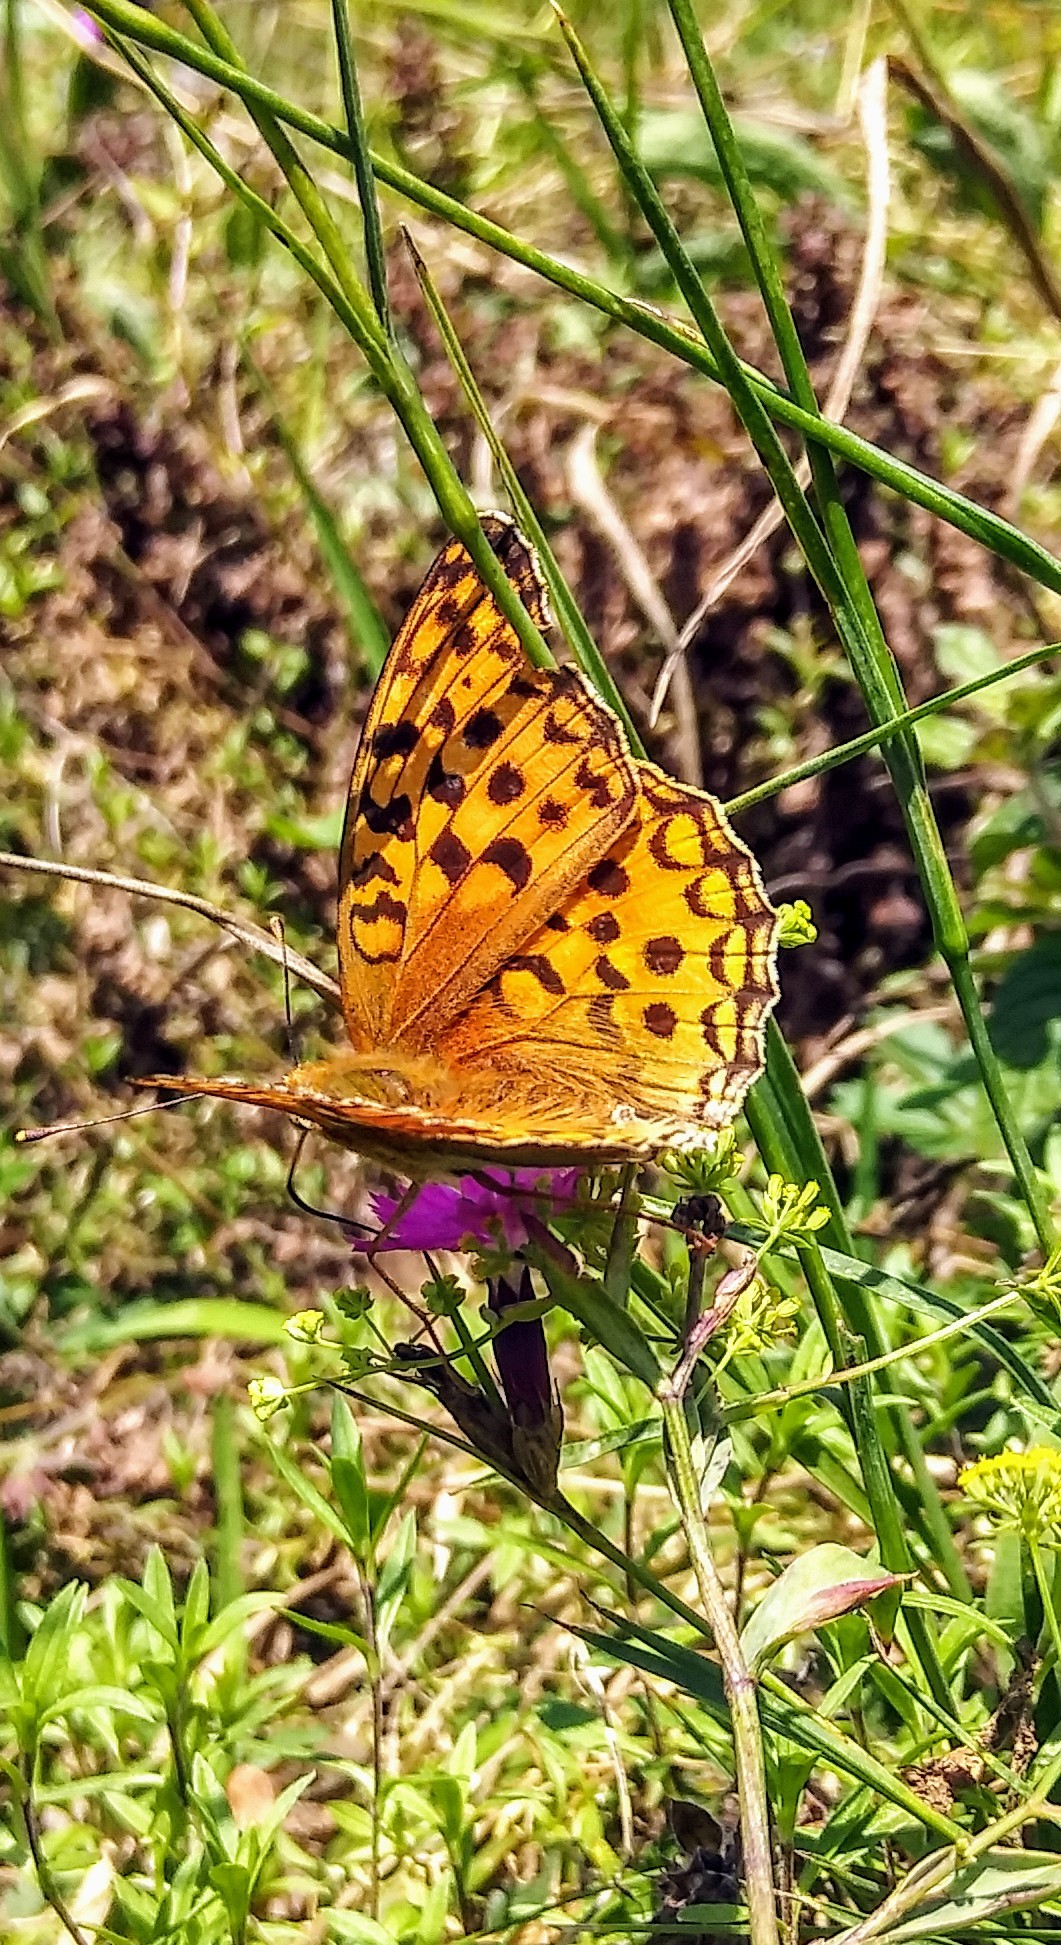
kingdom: Animalia
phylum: Arthropoda
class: Insecta
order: Lepidoptera
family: Nymphalidae
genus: Fabriciana
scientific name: Fabriciana adippe
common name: High brown fritillary
